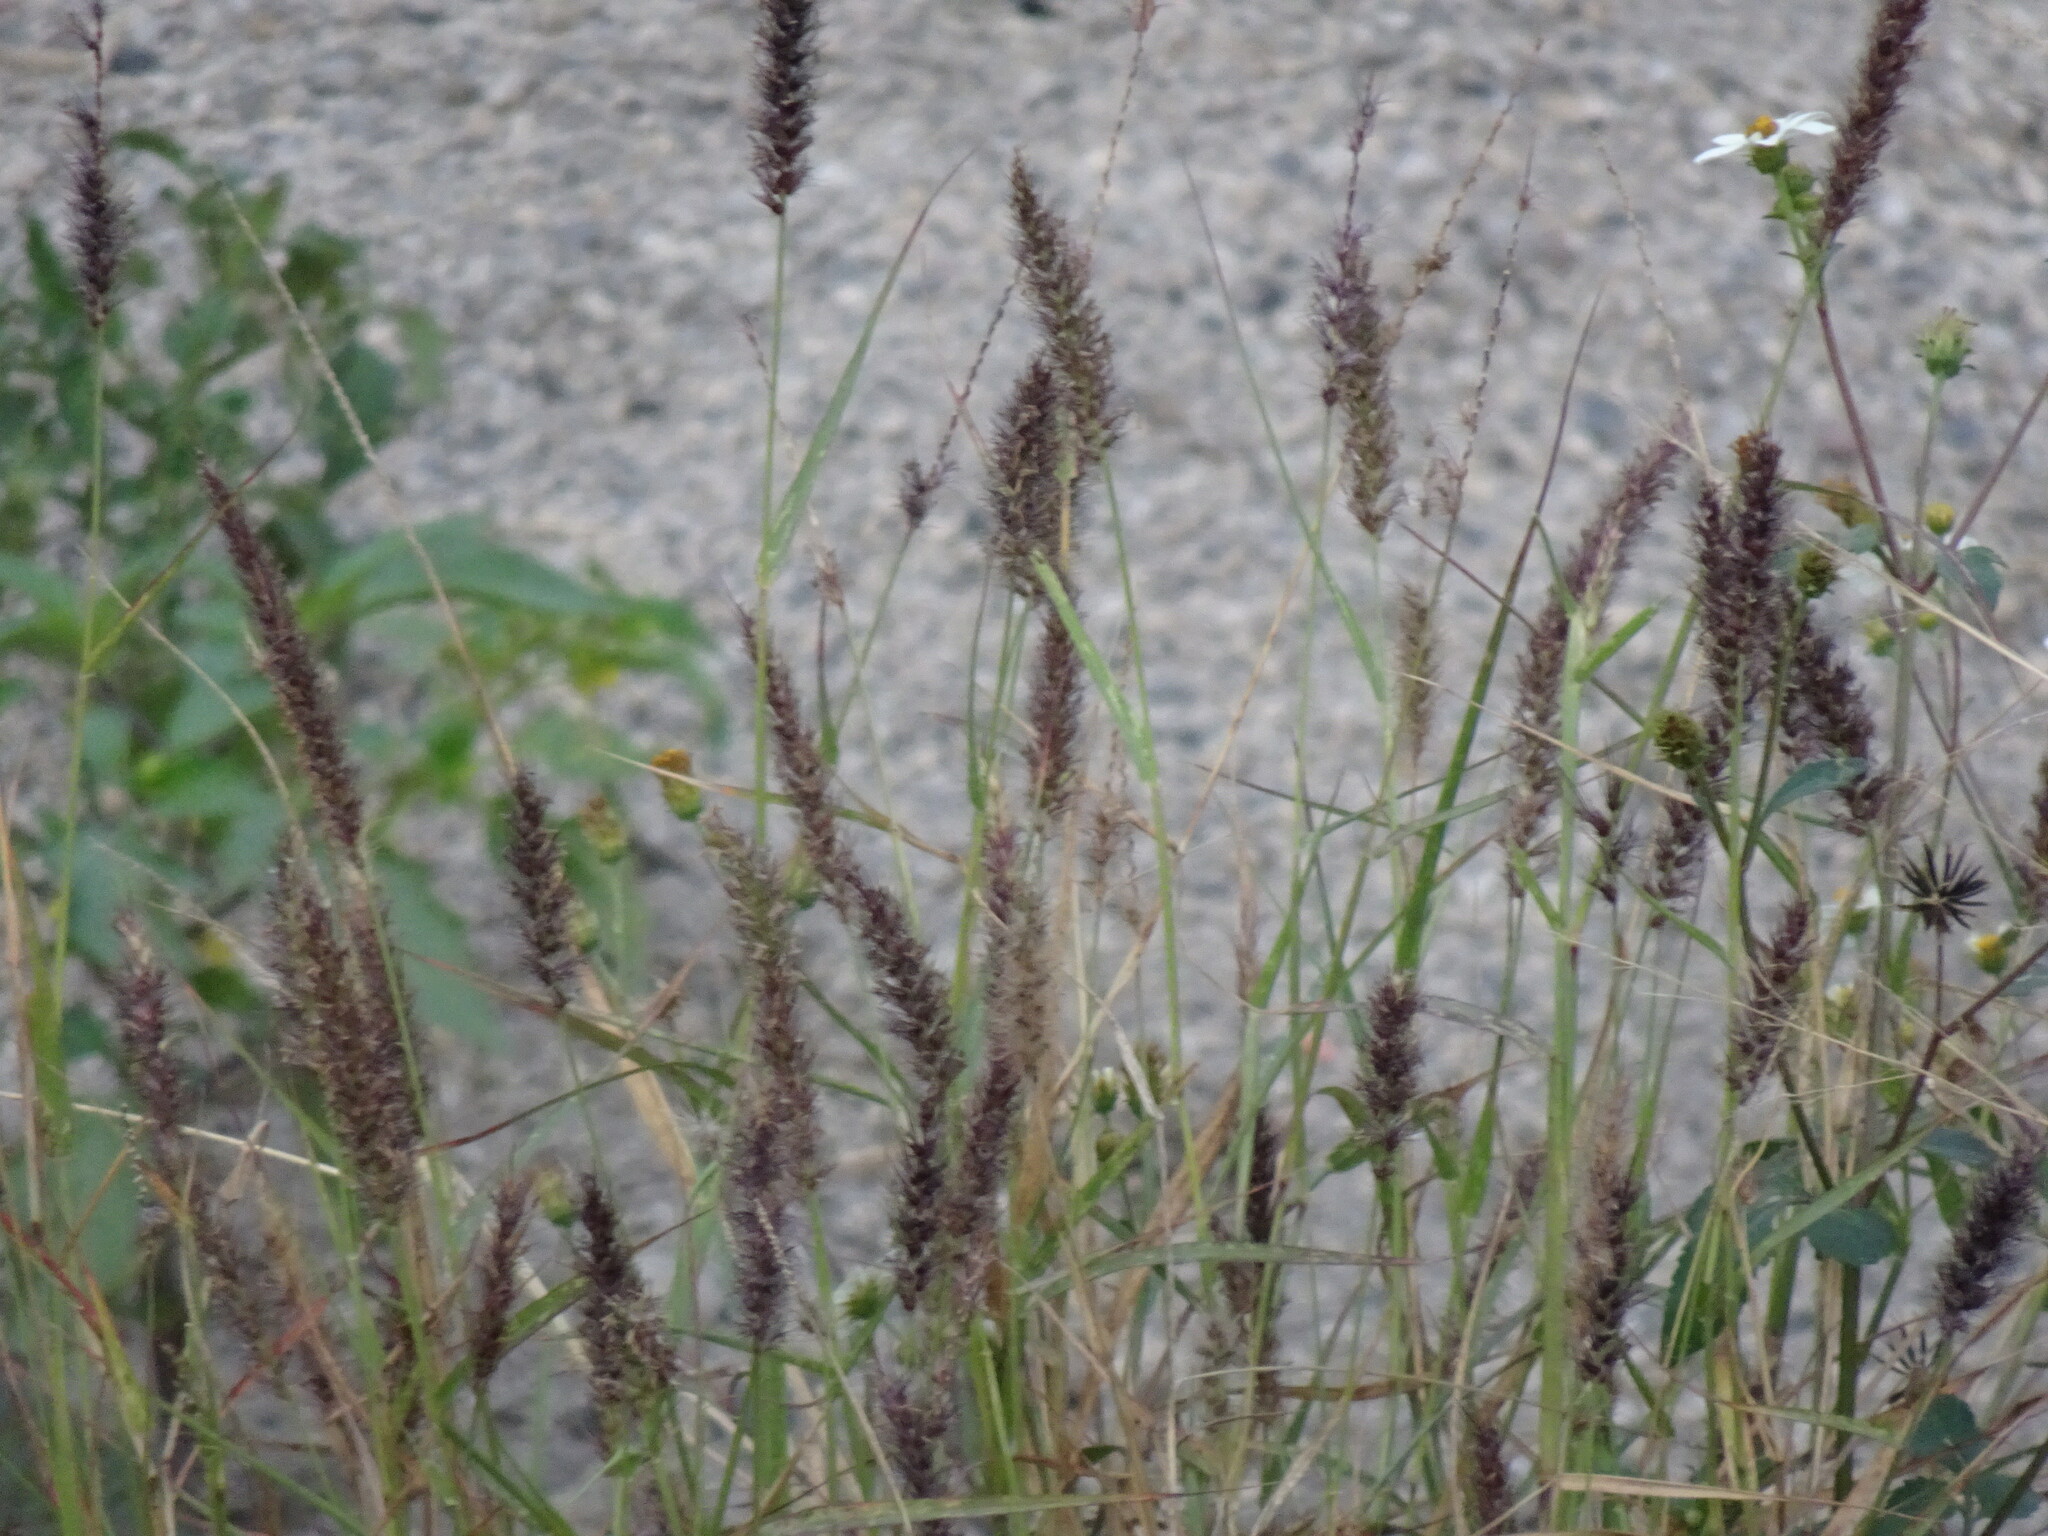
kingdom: Plantae
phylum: Tracheophyta
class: Liliopsida
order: Poales
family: Poaceae
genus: Cenchrus
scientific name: Cenchrus ciliaris
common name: Buffelgrass
